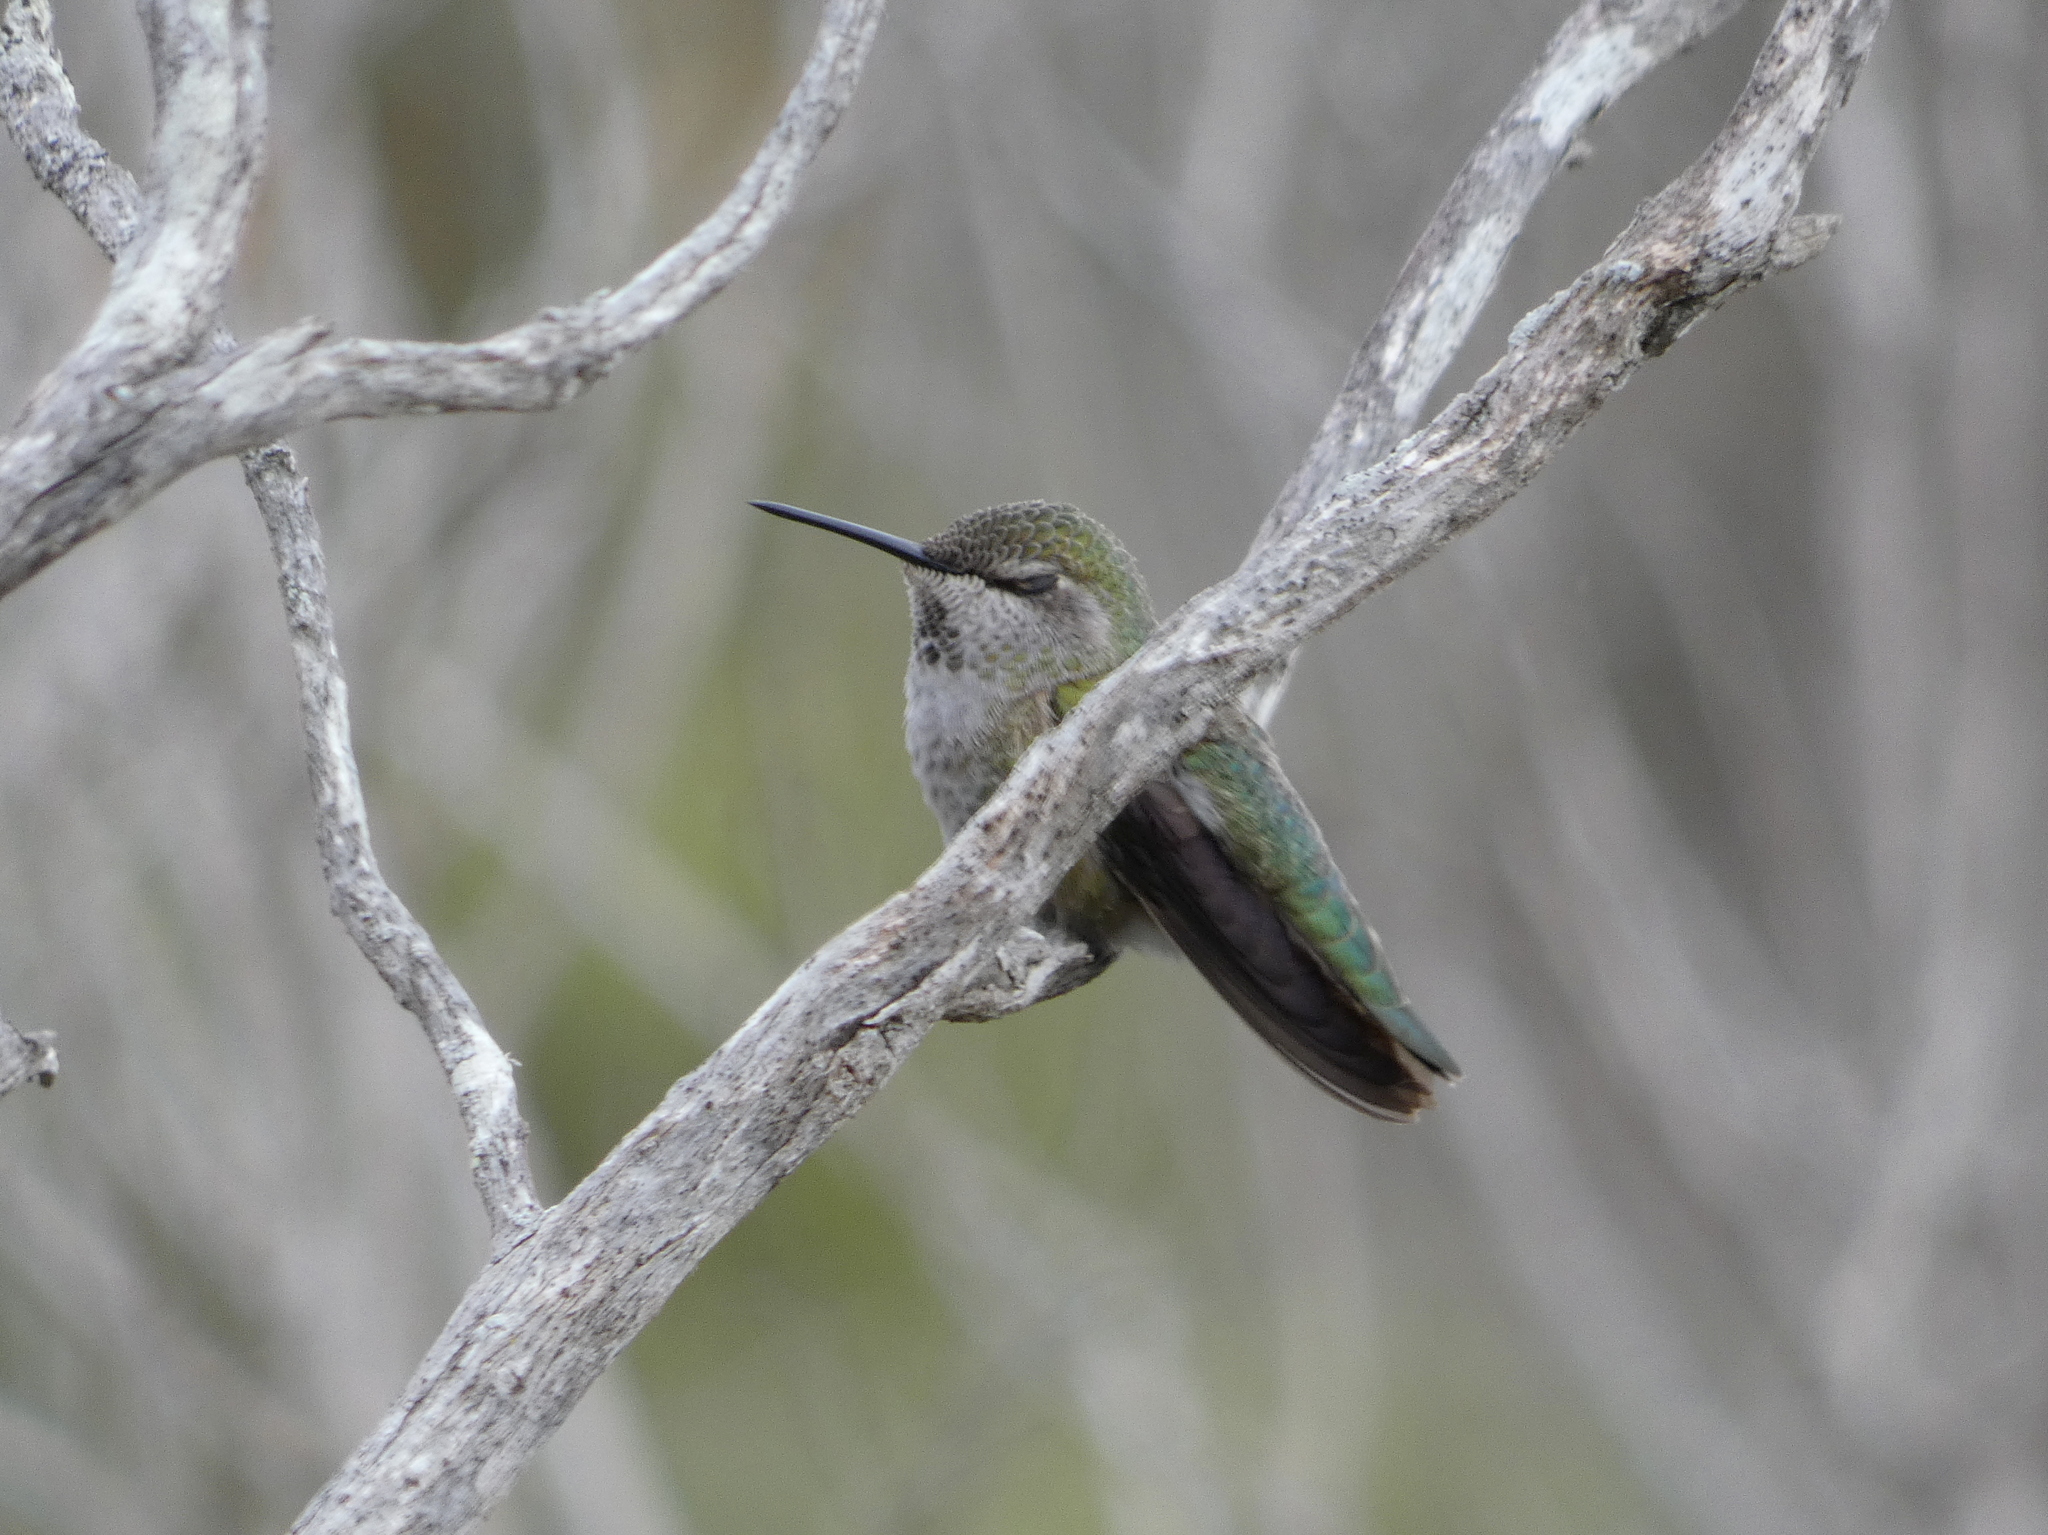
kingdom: Animalia
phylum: Chordata
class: Aves
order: Apodiformes
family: Trochilidae
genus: Calypte
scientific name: Calypte anna
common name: Anna's hummingbird
